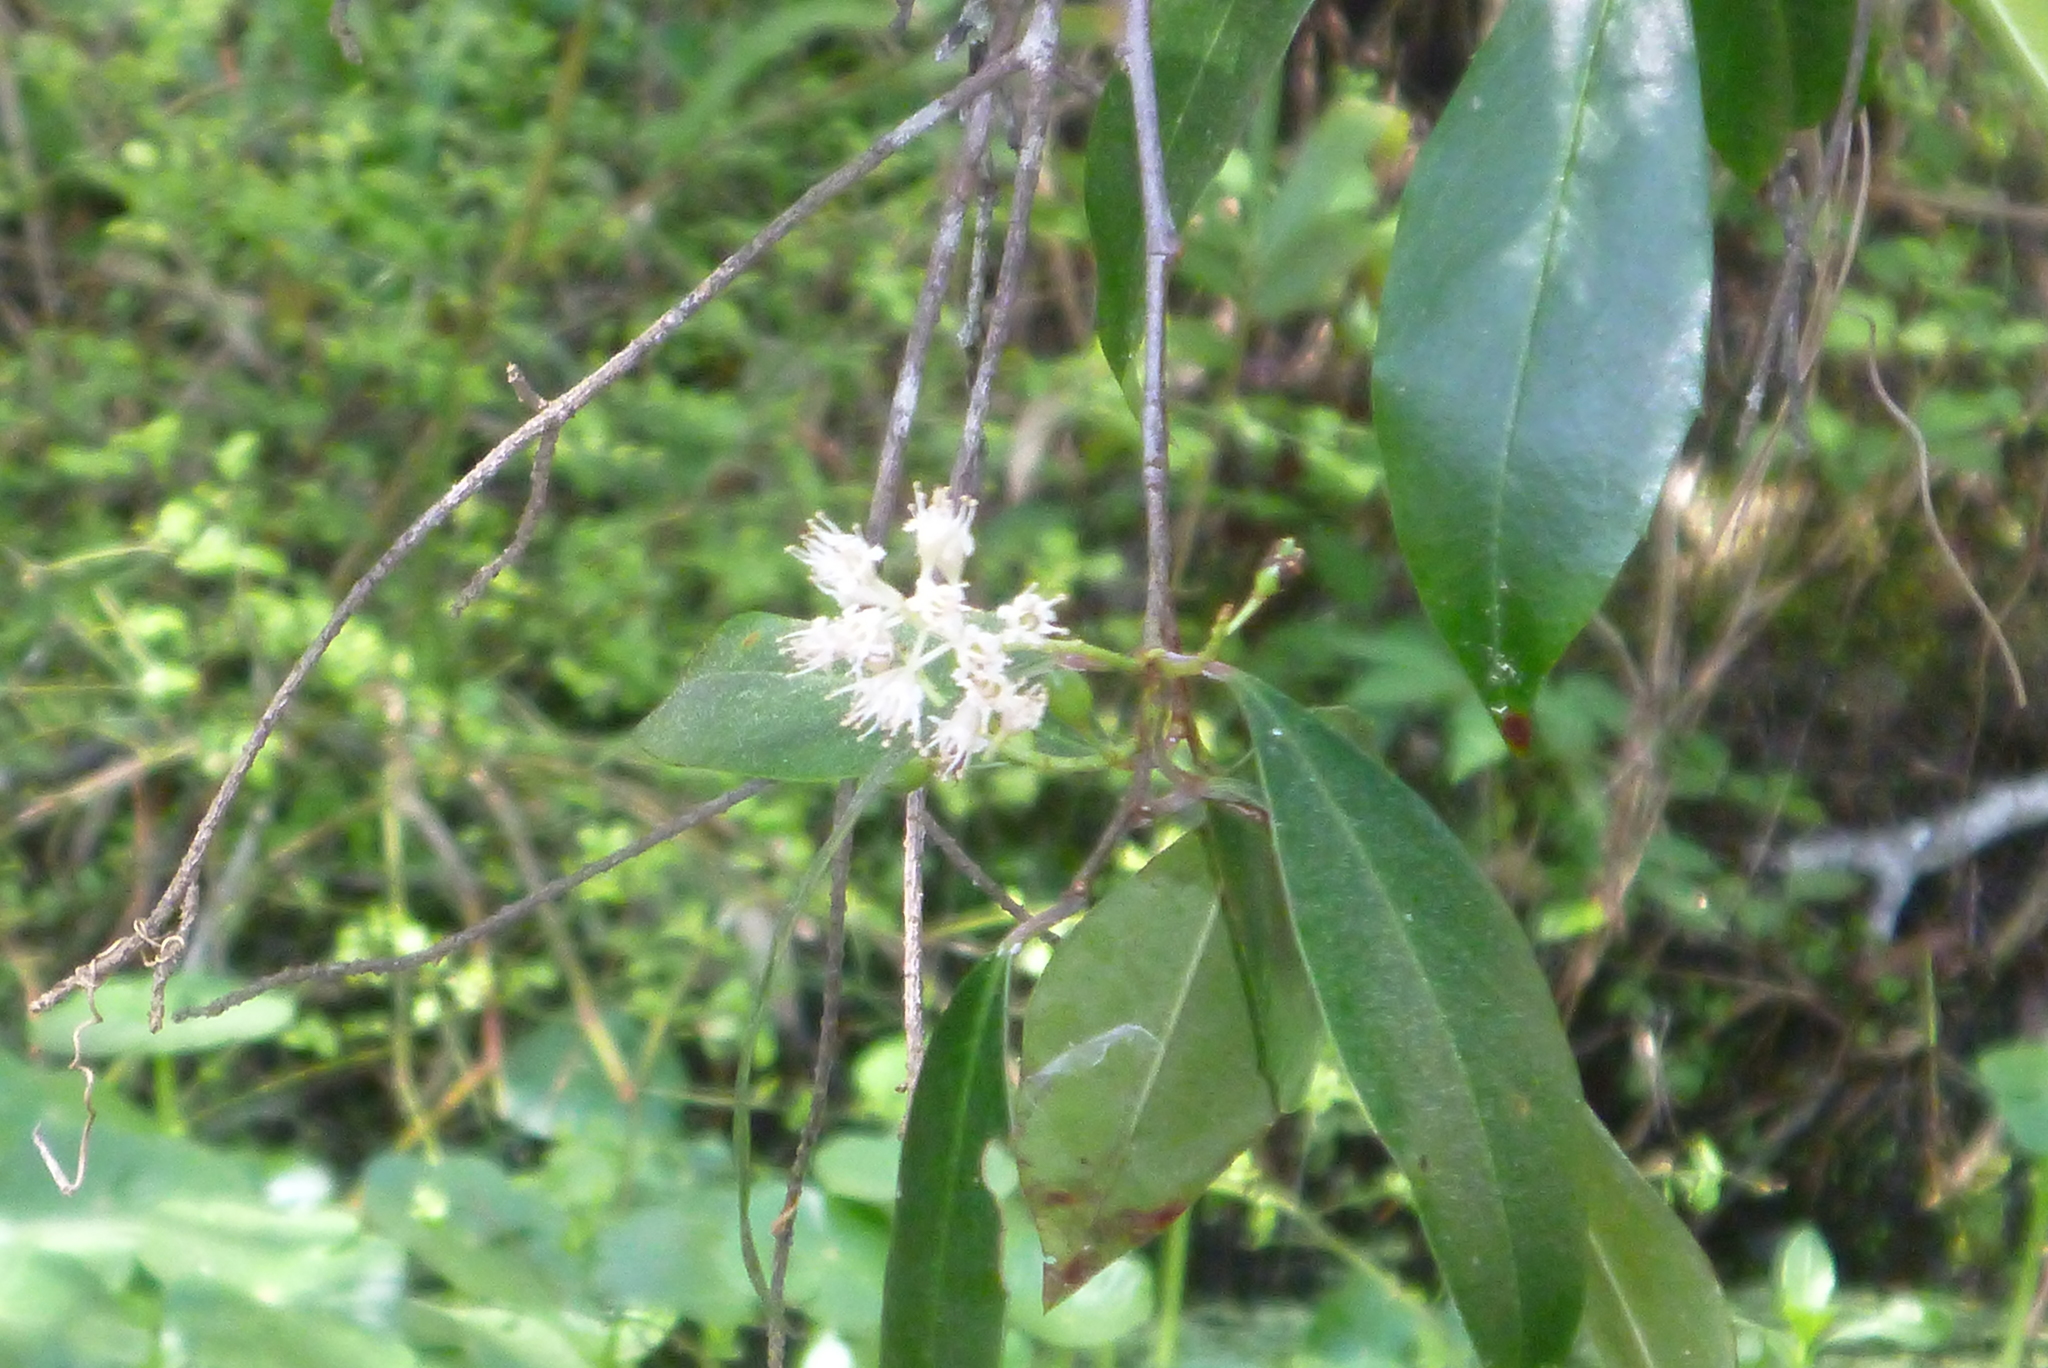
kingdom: Plantae
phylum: Tracheophyta
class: Magnoliopsida
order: Rosales
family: Rosaceae
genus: Prunus
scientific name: Prunus caroliniana
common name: Carolina laurel cherry
